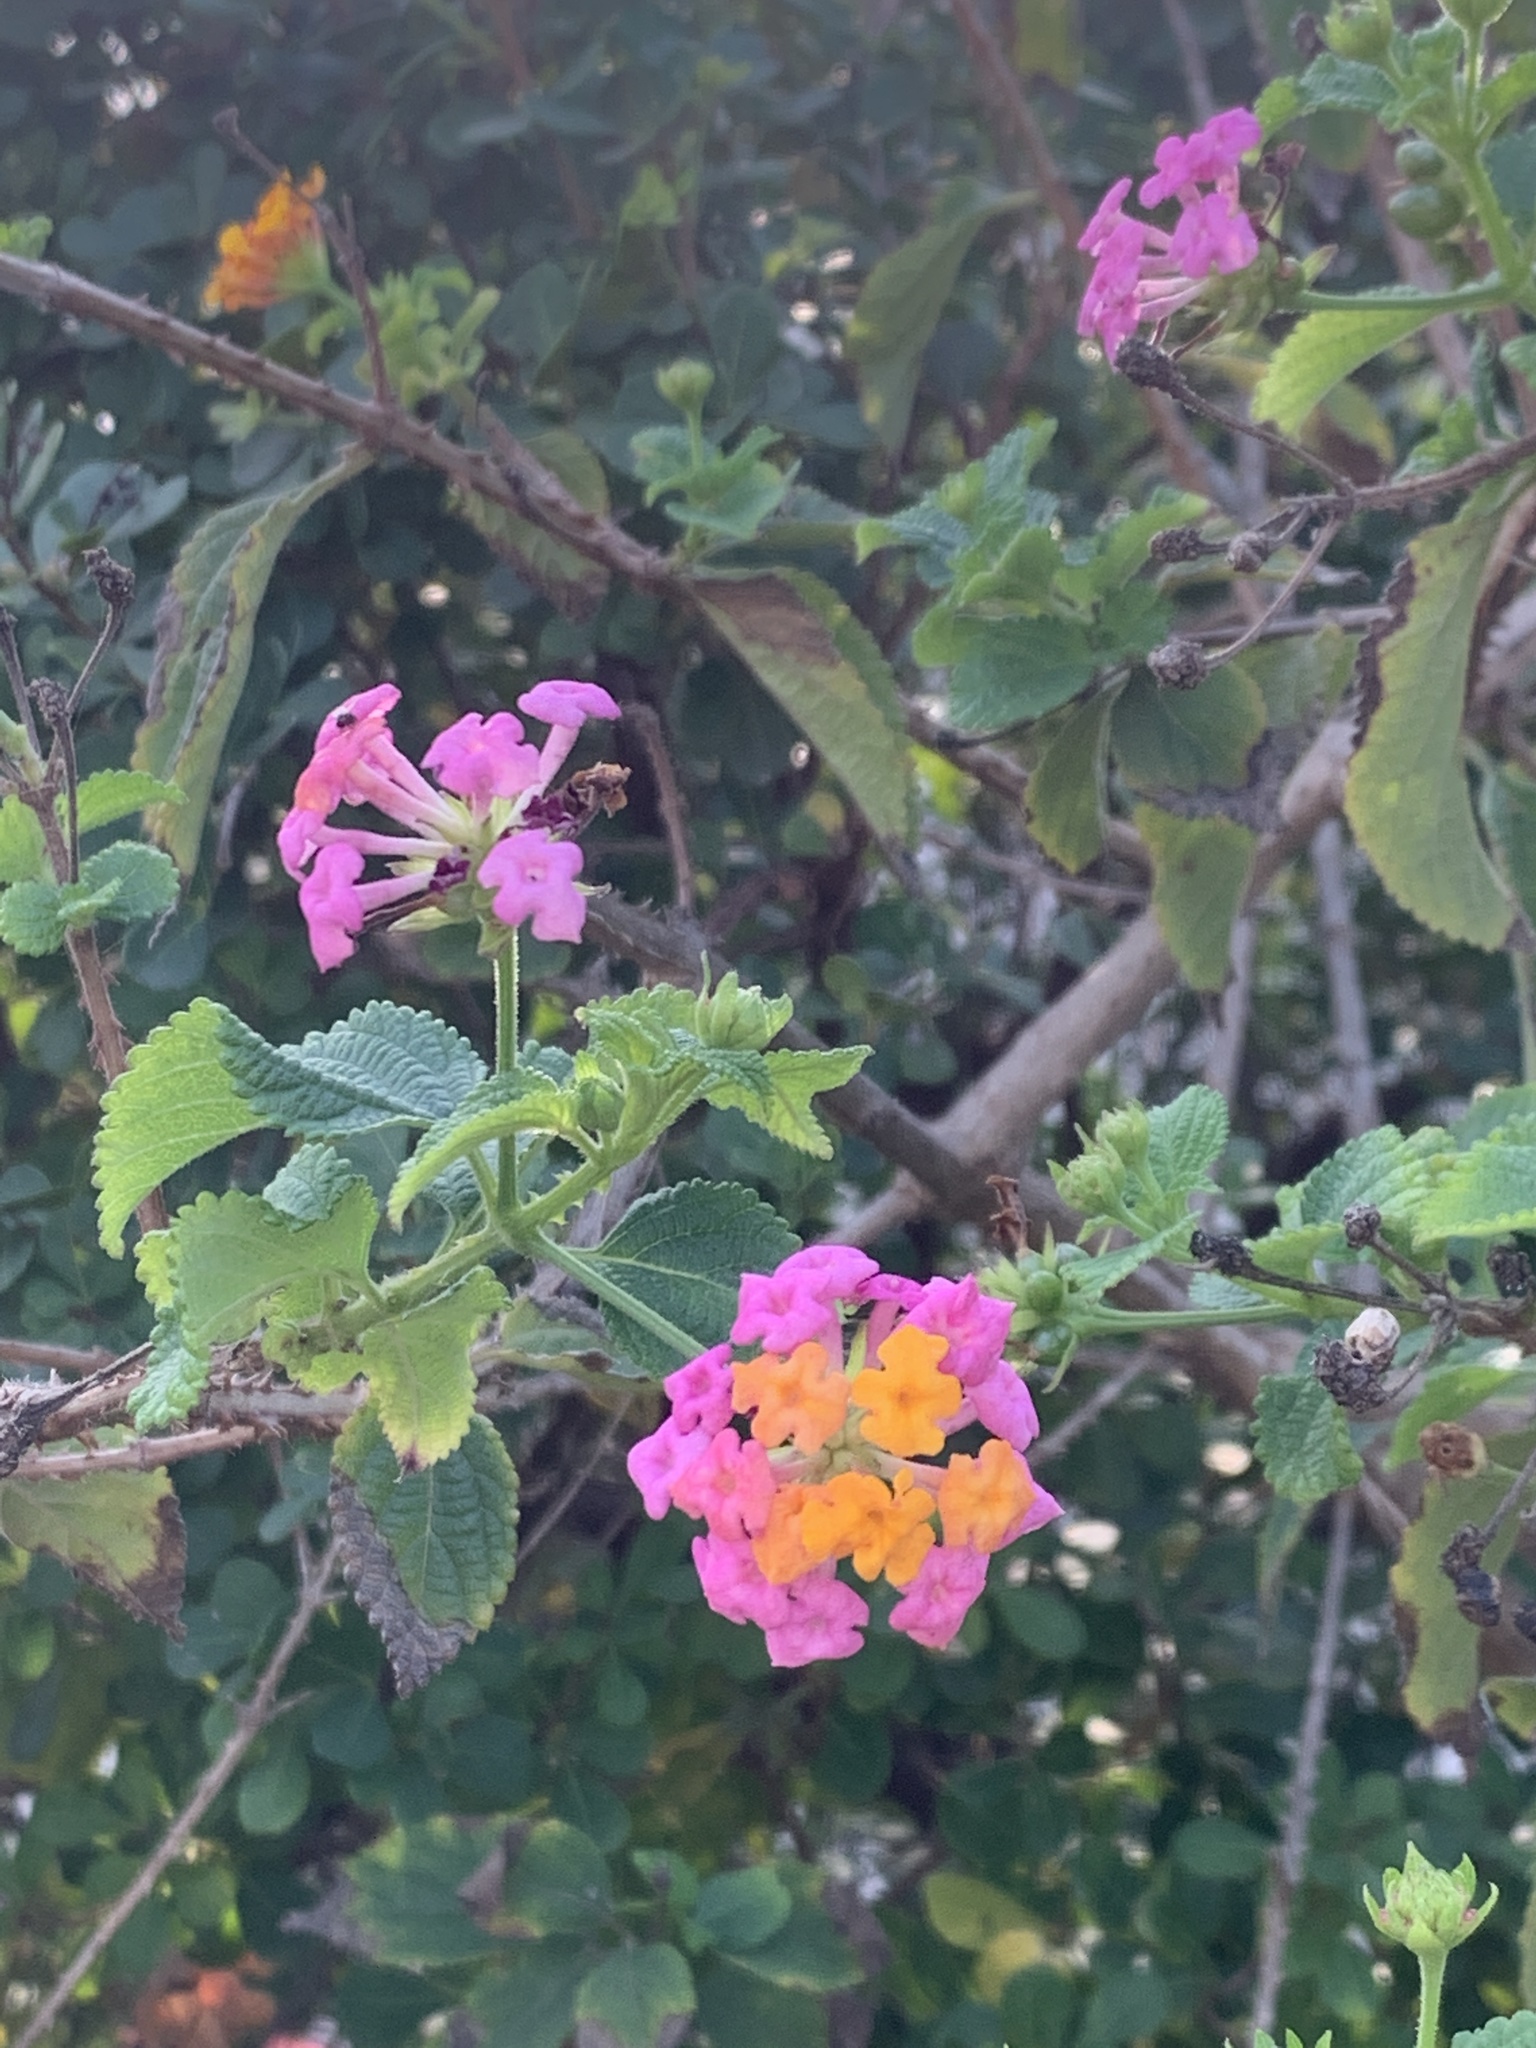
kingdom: Plantae
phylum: Tracheophyta
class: Magnoliopsida
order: Lamiales
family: Verbenaceae
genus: Lantana
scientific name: Lantana camara
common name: Lantana
